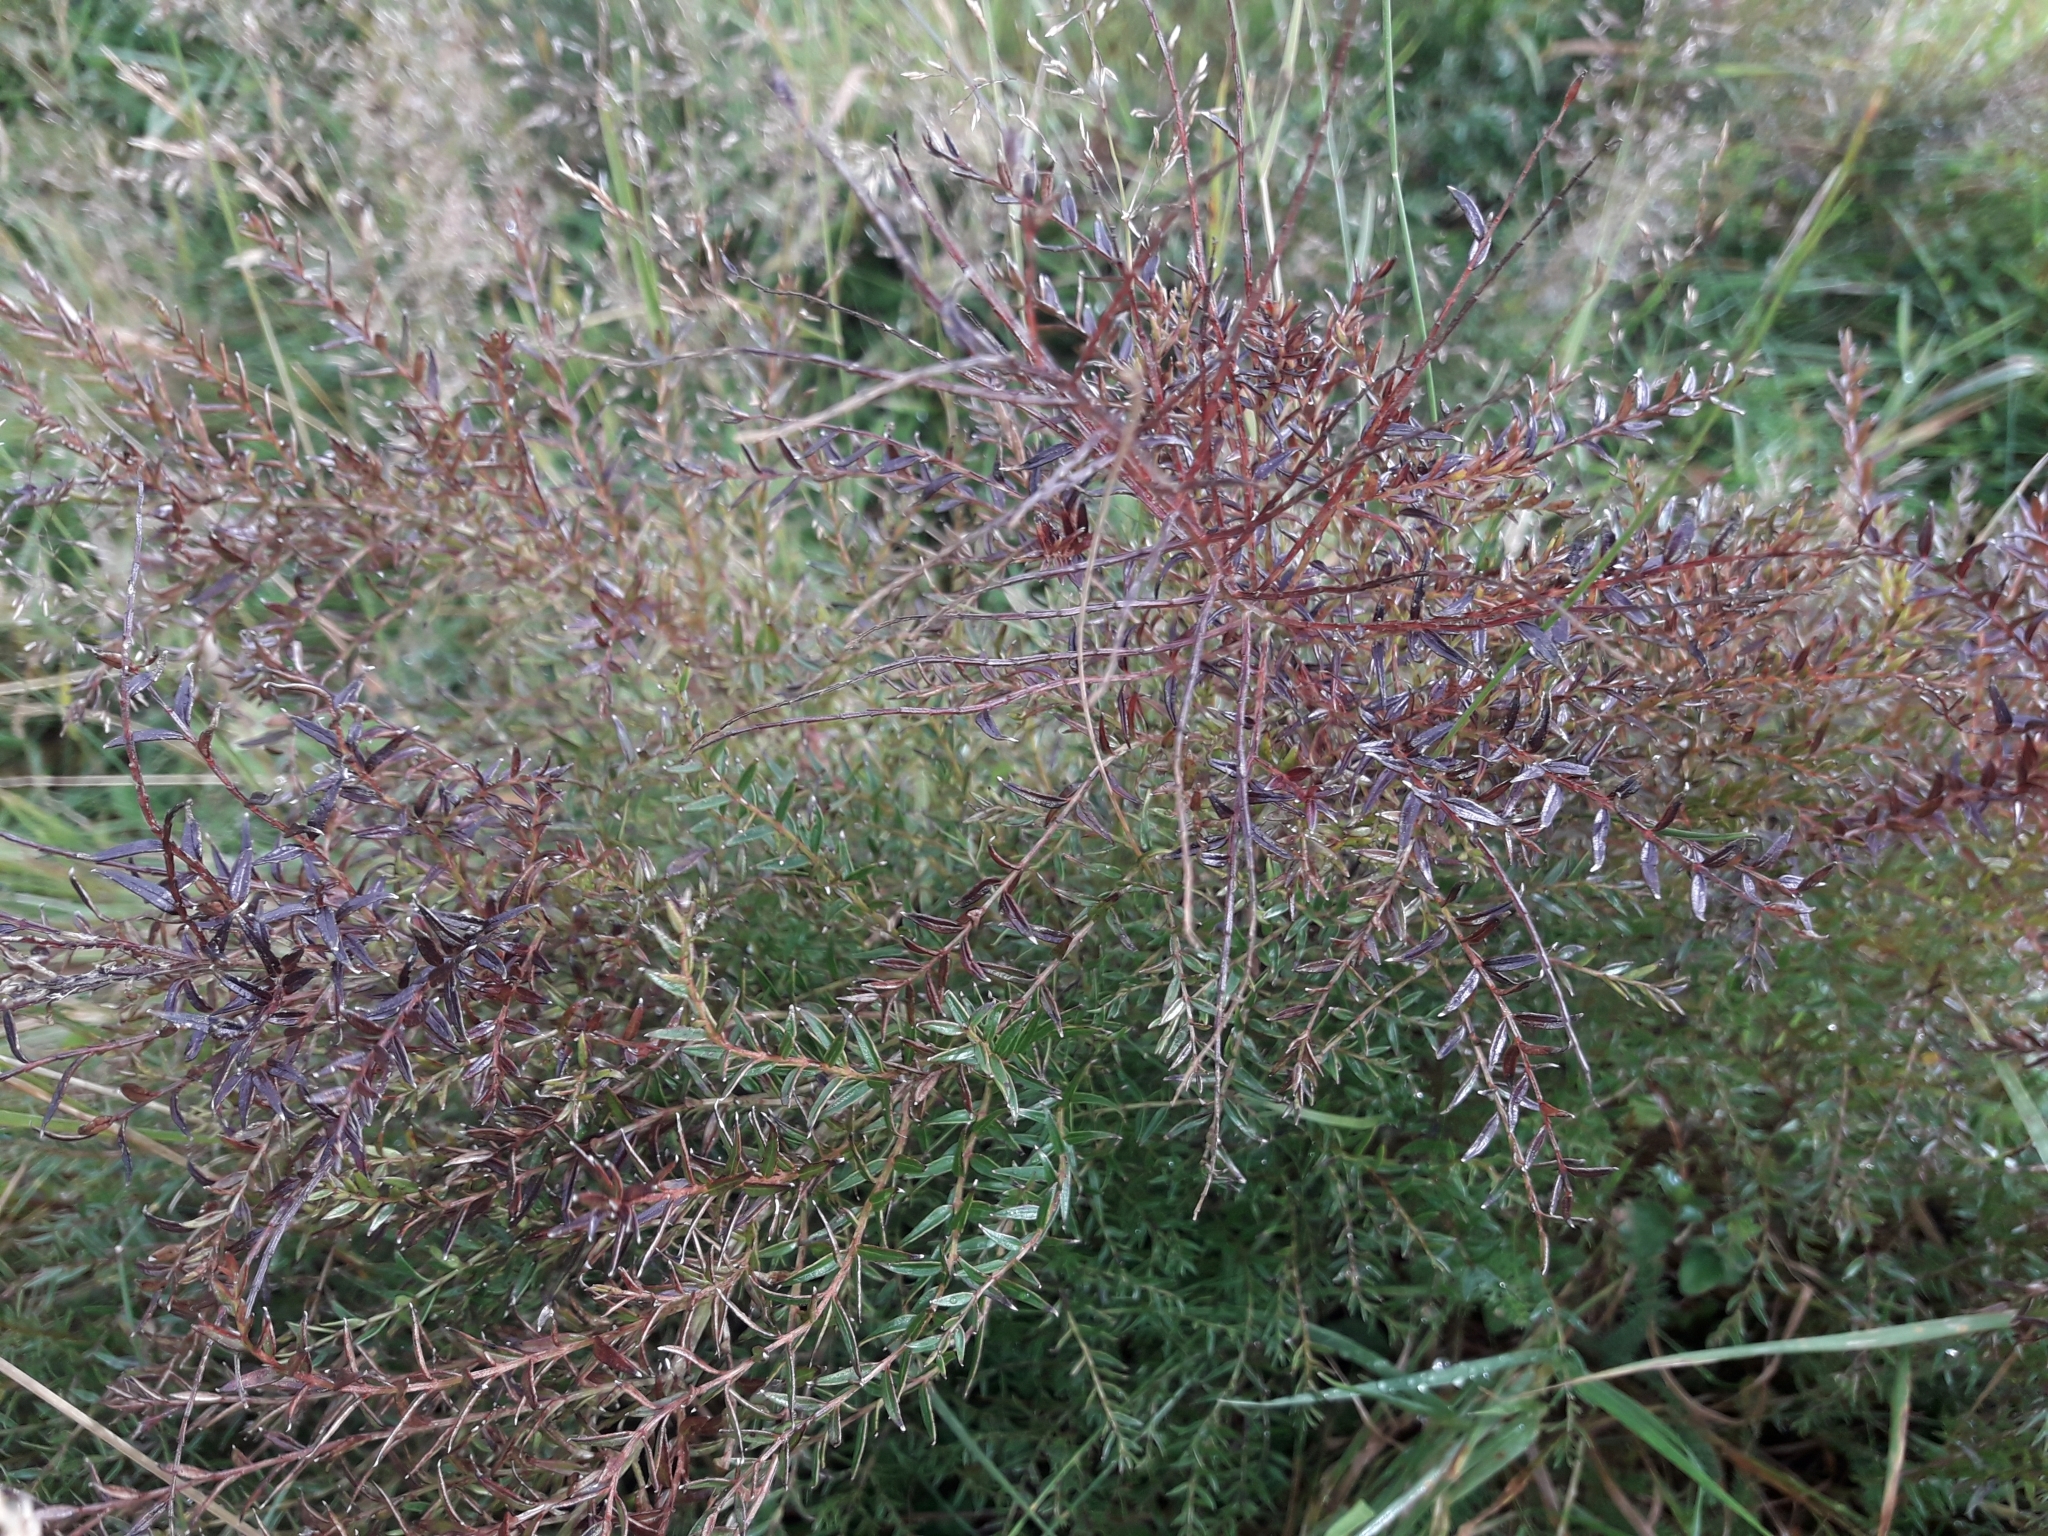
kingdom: Plantae
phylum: Tracheophyta
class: Magnoliopsida
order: Cucurbitales
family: Coriariaceae
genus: Coriaria
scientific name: Coriaria angustissima
